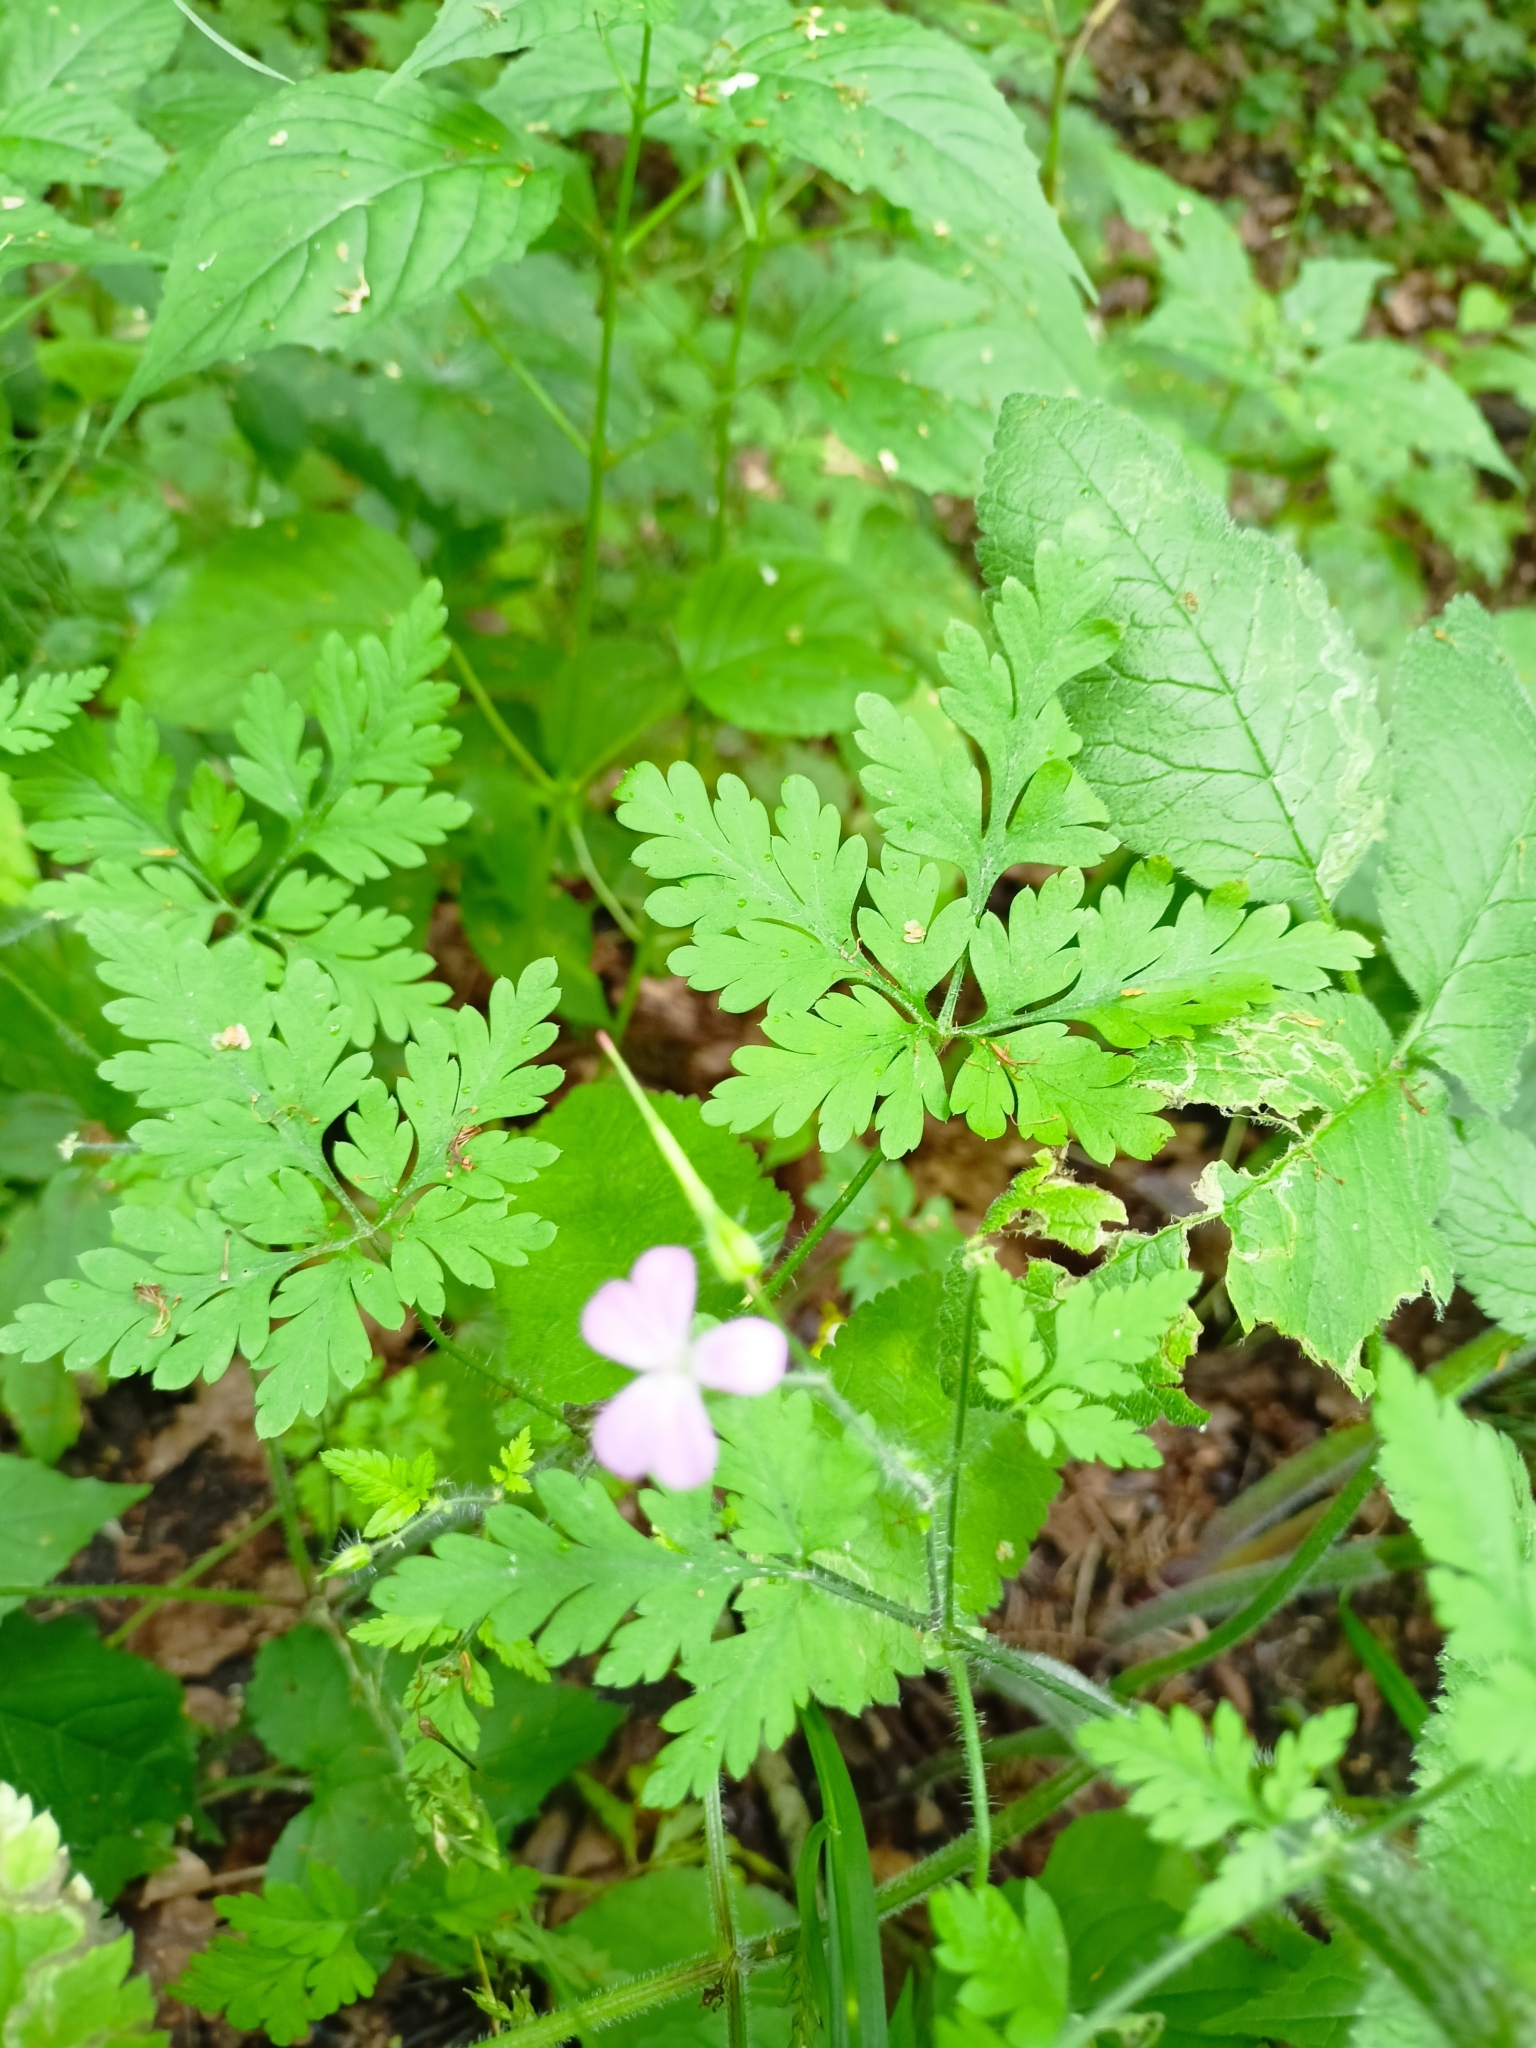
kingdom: Plantae
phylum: Tracheophyta
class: Magnoliopsida
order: Geraniales
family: Geraniaceae
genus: Geranium
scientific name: Geranium robertianum
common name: Herb-robert
